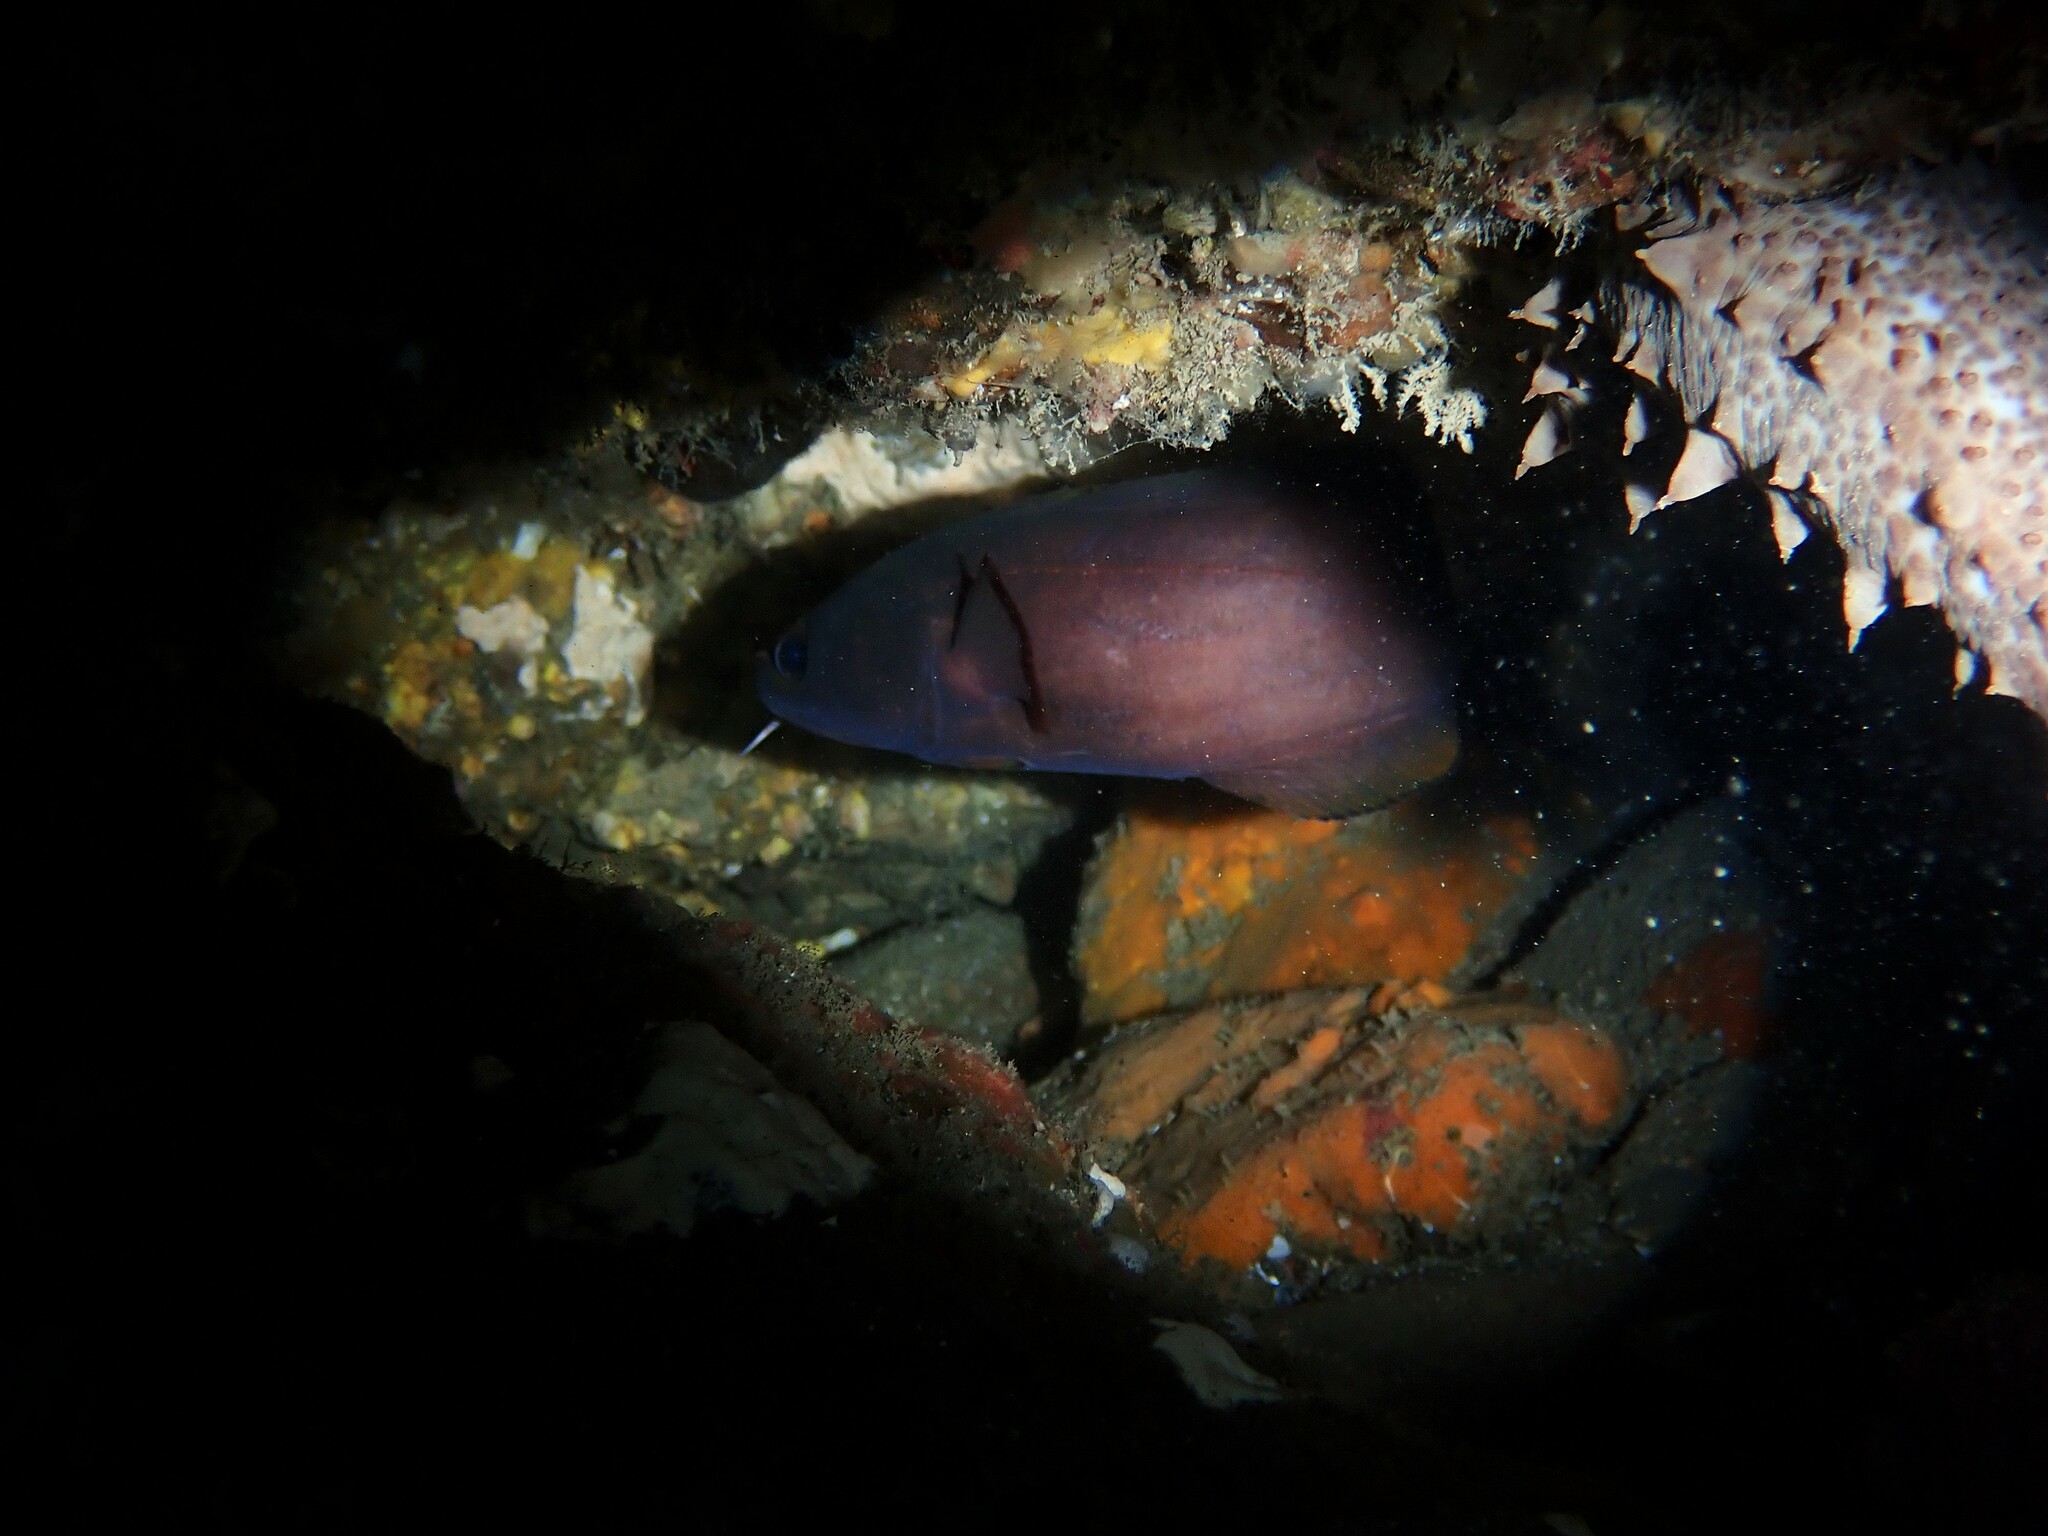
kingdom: Animalia
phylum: Chordata
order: Gadiformes
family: Moridae
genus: Lotella
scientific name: Lotella rhacina
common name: Rock cod
